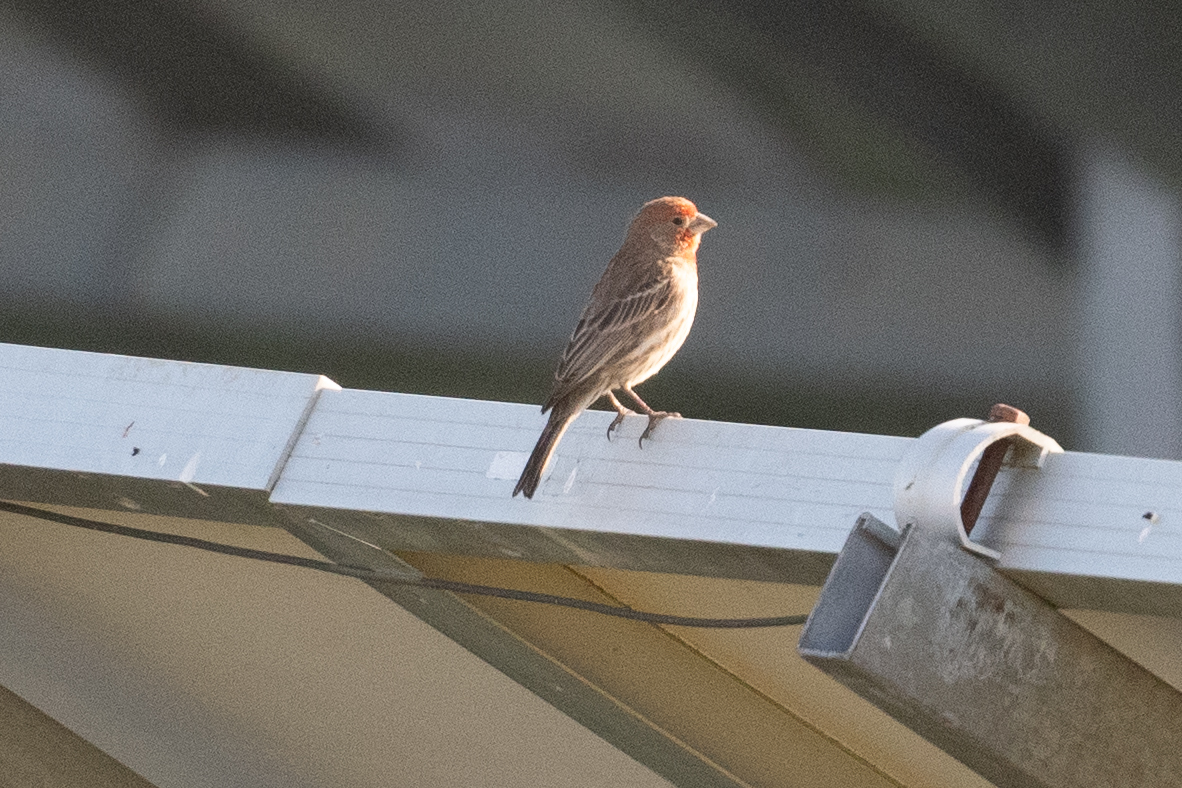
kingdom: Animalia
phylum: Chordata
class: Aves
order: Passeriformes
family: Fringillidae
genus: Haemorhous
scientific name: Haemorhous mexicanus
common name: House finch
